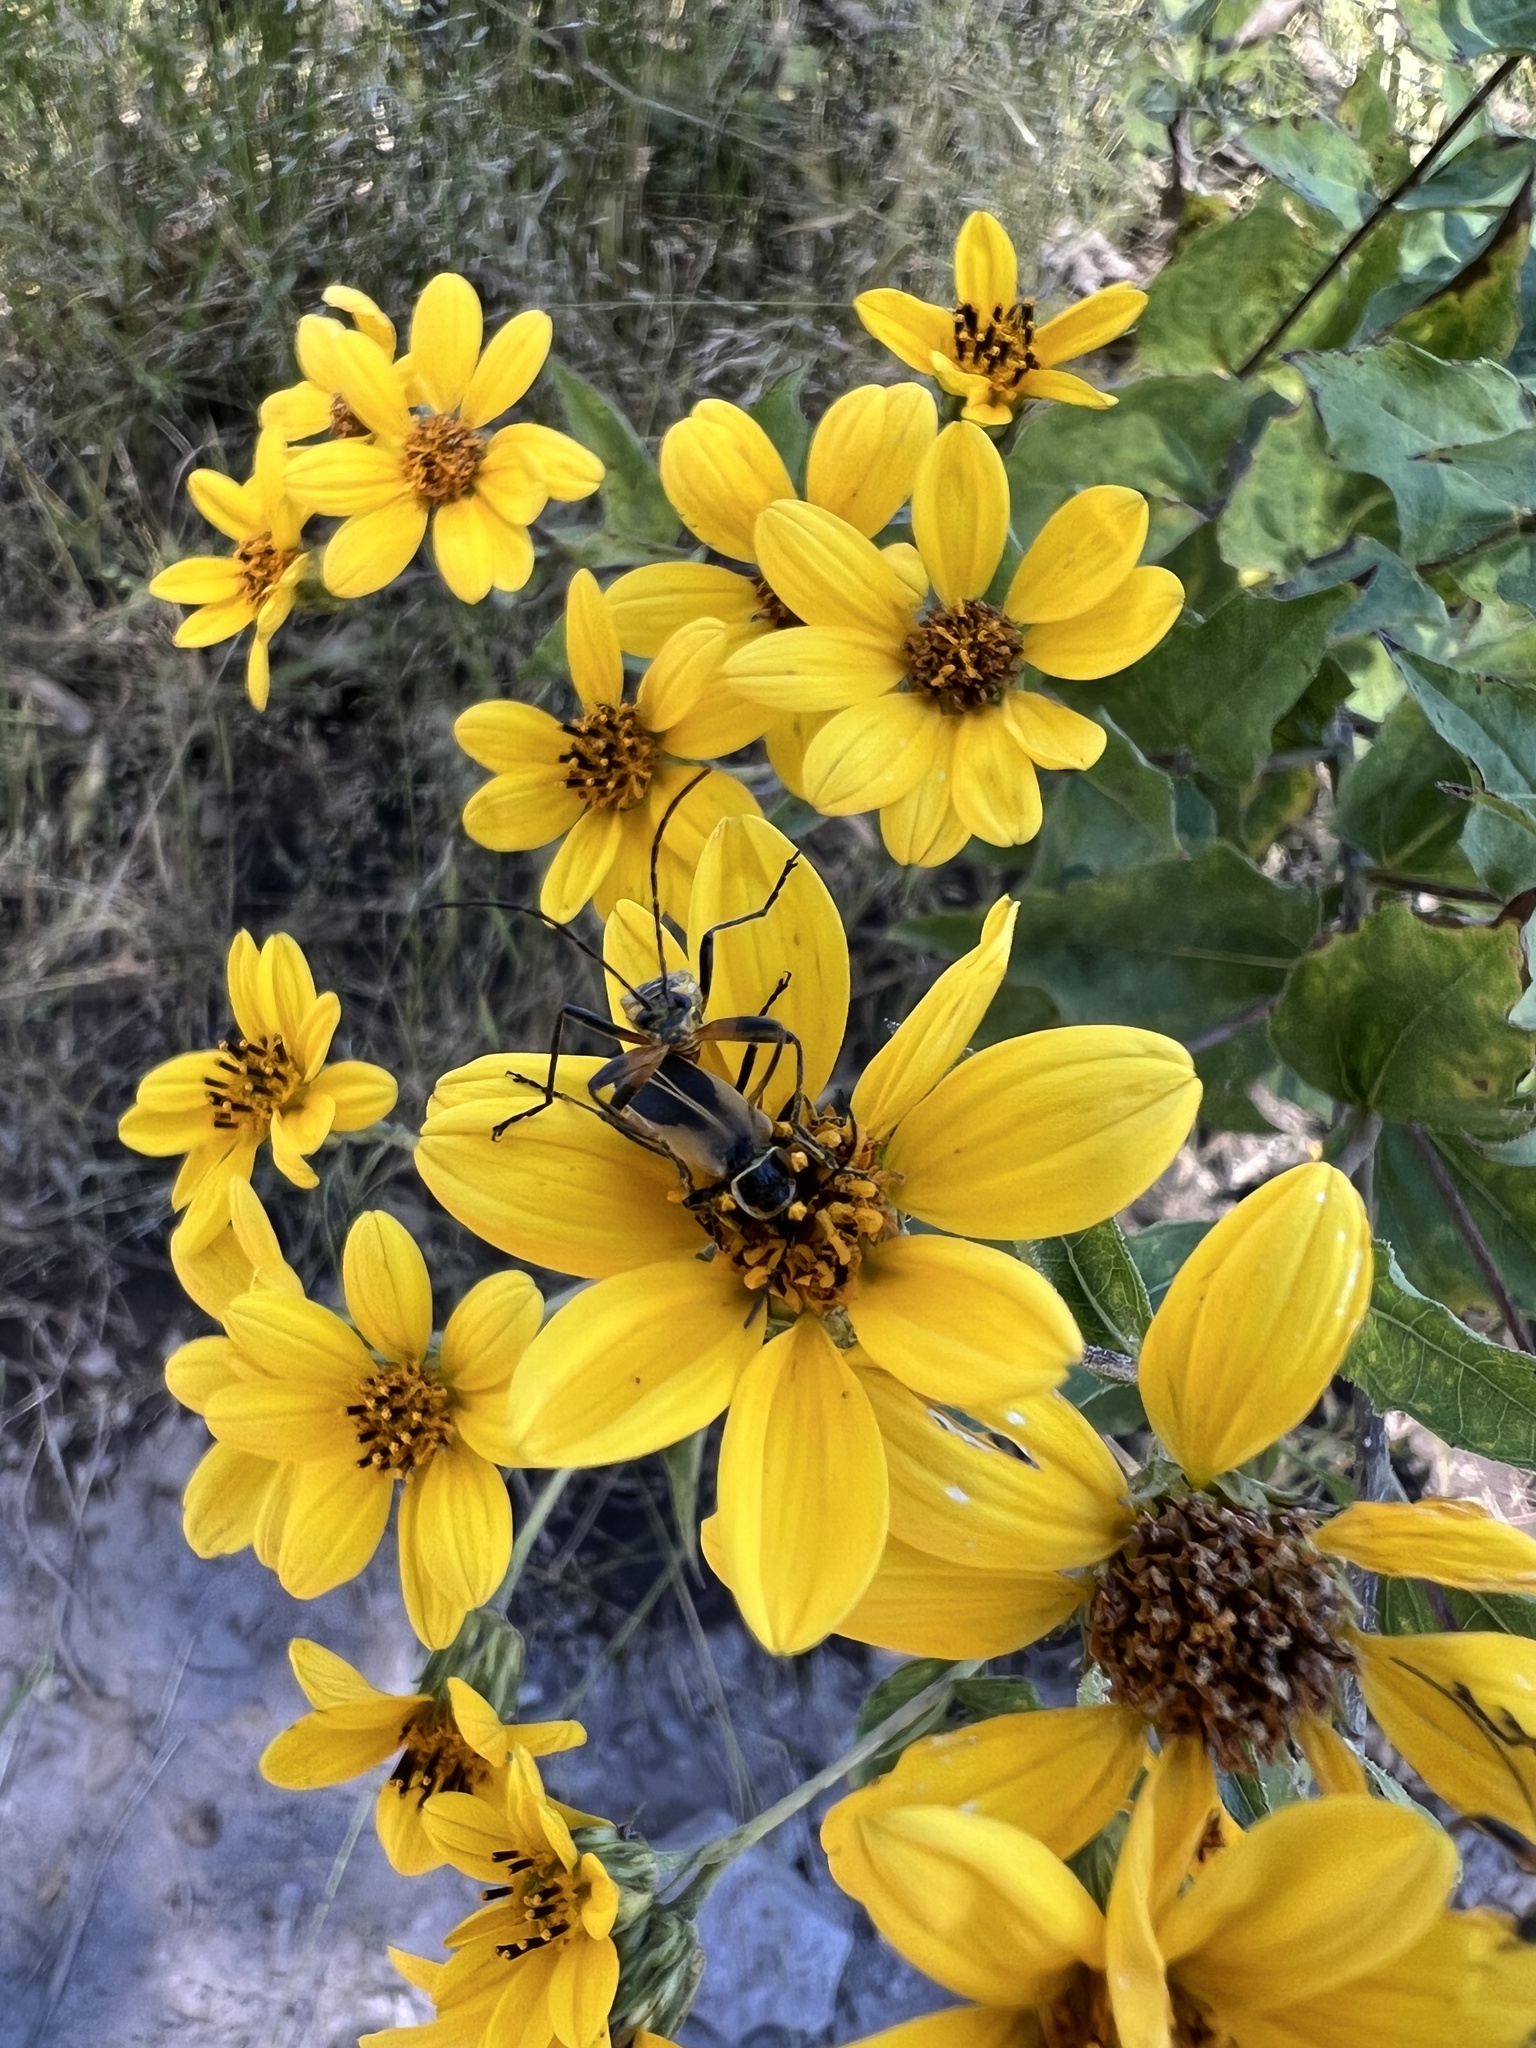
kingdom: Animalia
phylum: Arthropoda
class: Insecta
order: Coleoptera
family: Cantharidae
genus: Chauliognathus
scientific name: Chauliognathus opacus
